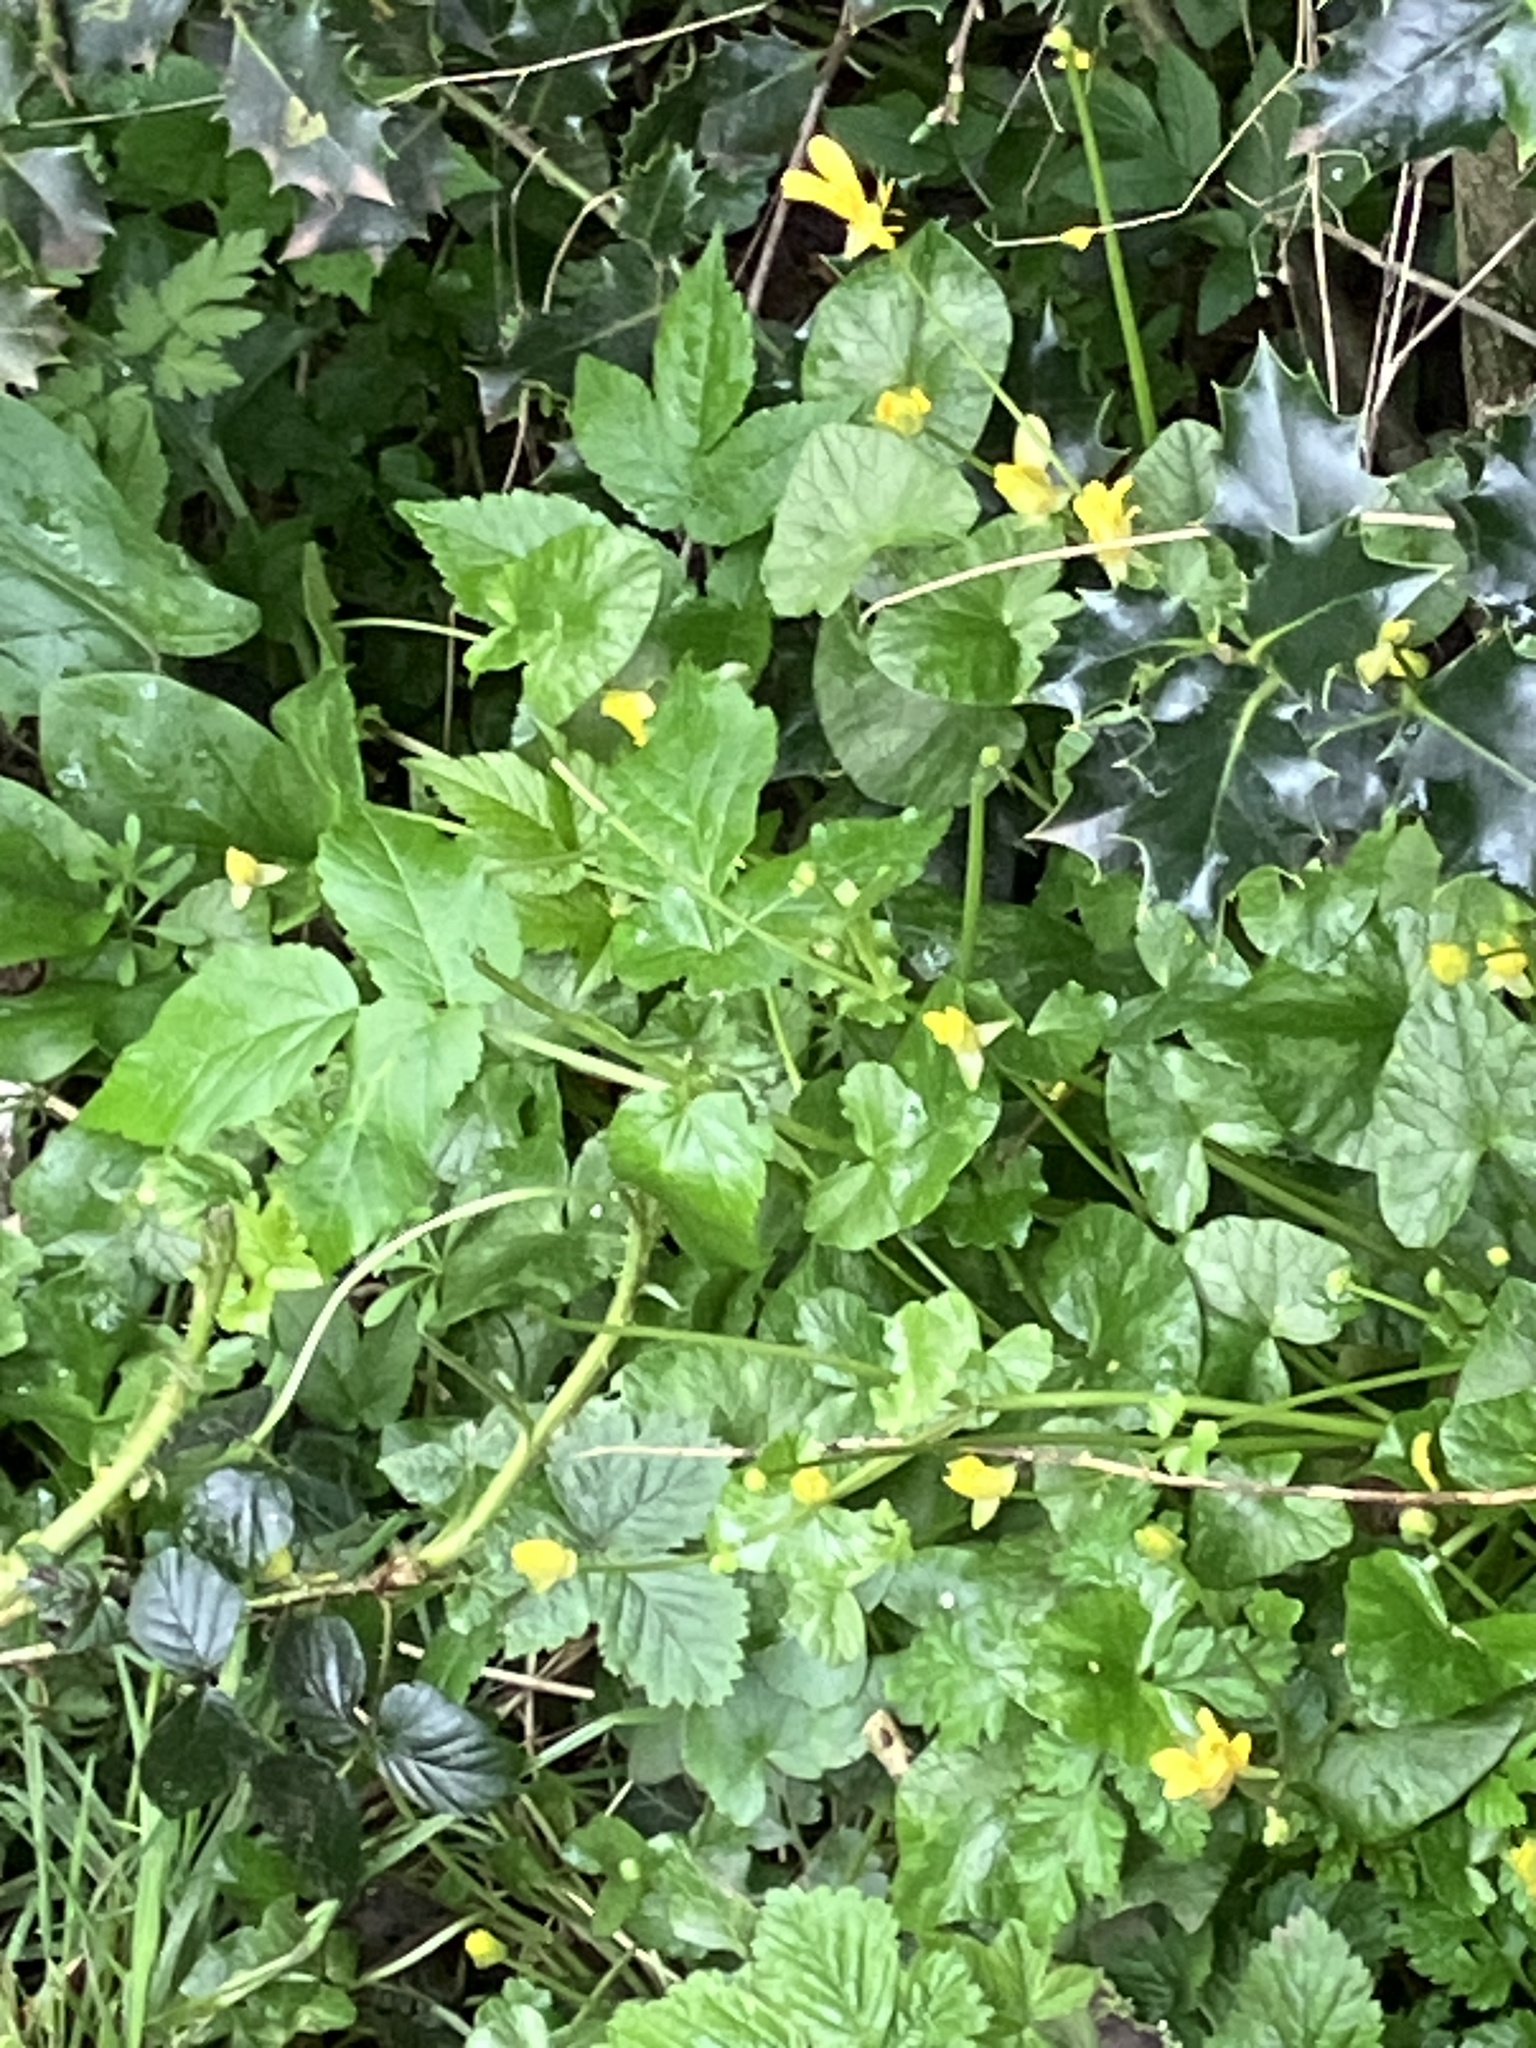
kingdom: Plantae
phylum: Tracheophyta
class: Magnoliopsida
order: Ranunculales
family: Ranunculaceae
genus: Ficaria
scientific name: Ficaria verna
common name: Lesser celandine
